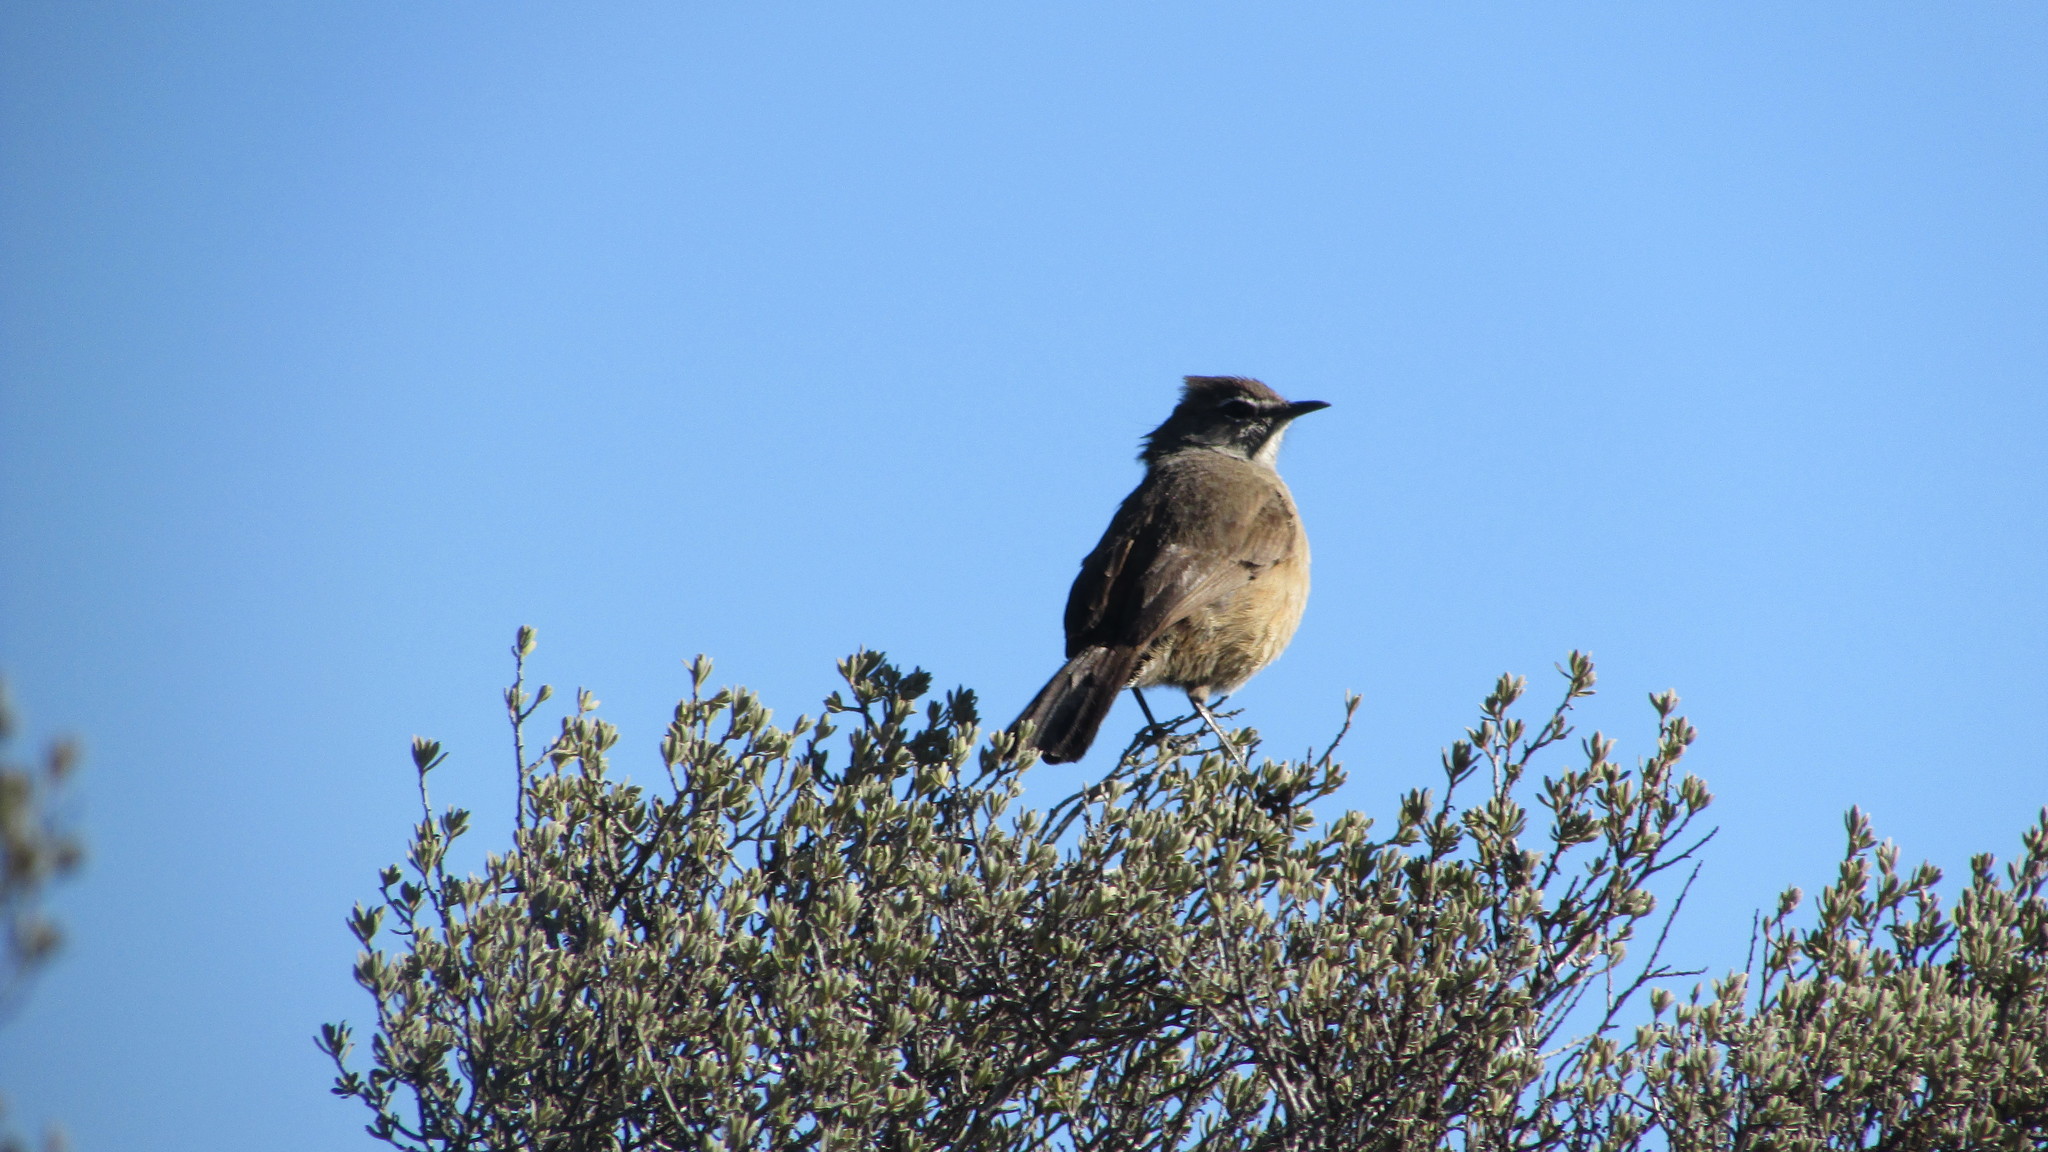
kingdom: Animalia
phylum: Chordata
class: Aves
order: Passeriformes
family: Muscicapidae
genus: Erythropygia
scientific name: Erythropygia coryphoeus
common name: Karoo scrub robin
